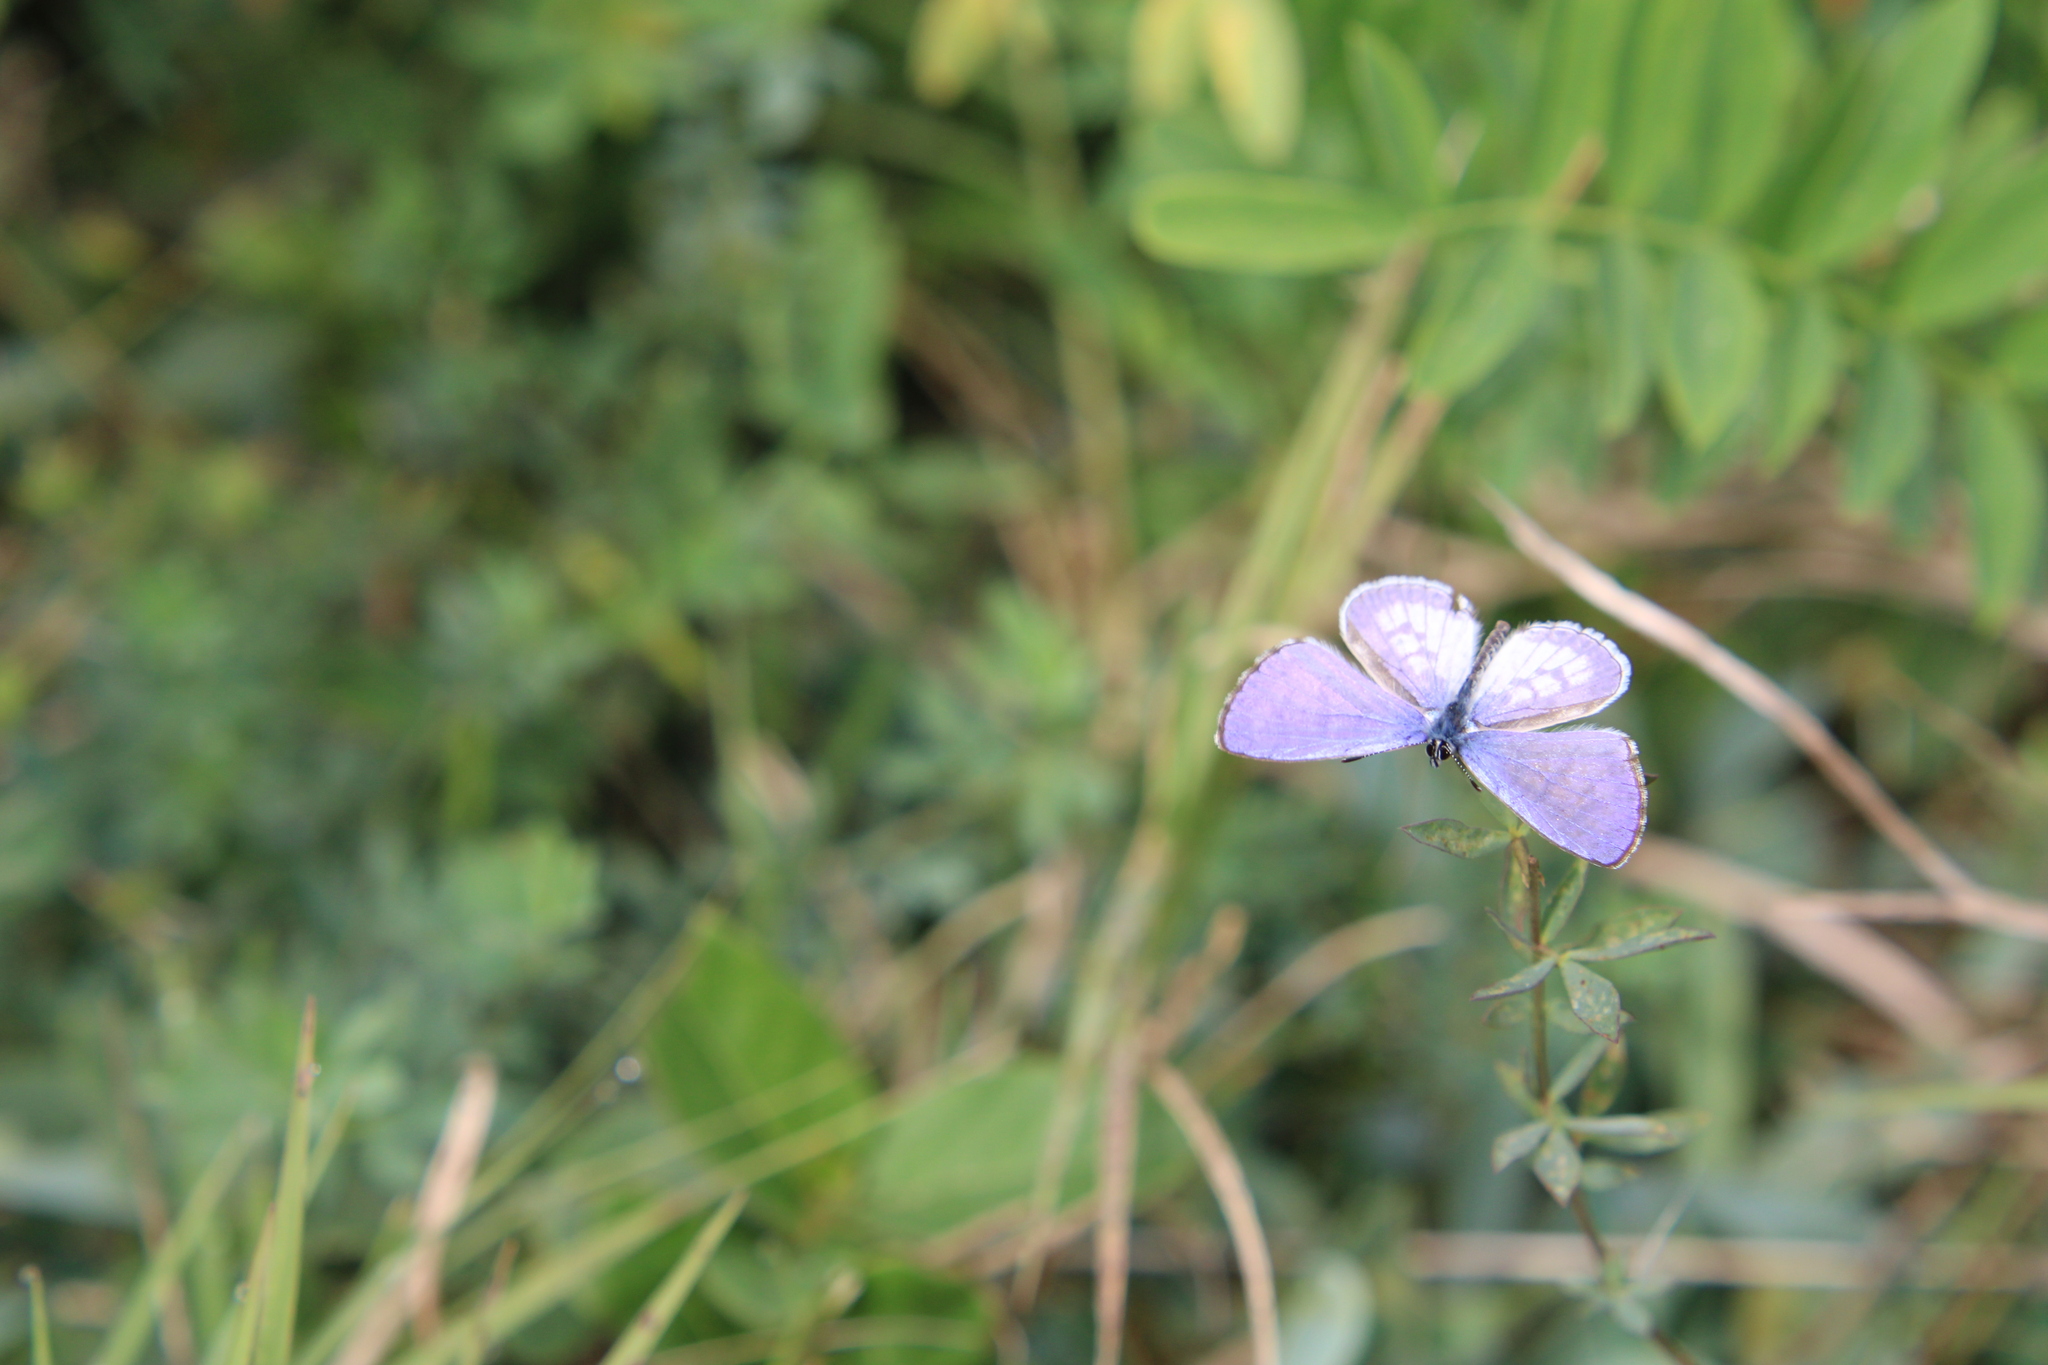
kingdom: Animalia
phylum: Arthropoda
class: Insecta
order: Lepidoptera
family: Lycaenidae
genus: Leptotes
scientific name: Leptotes cassius
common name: Cassius blue
